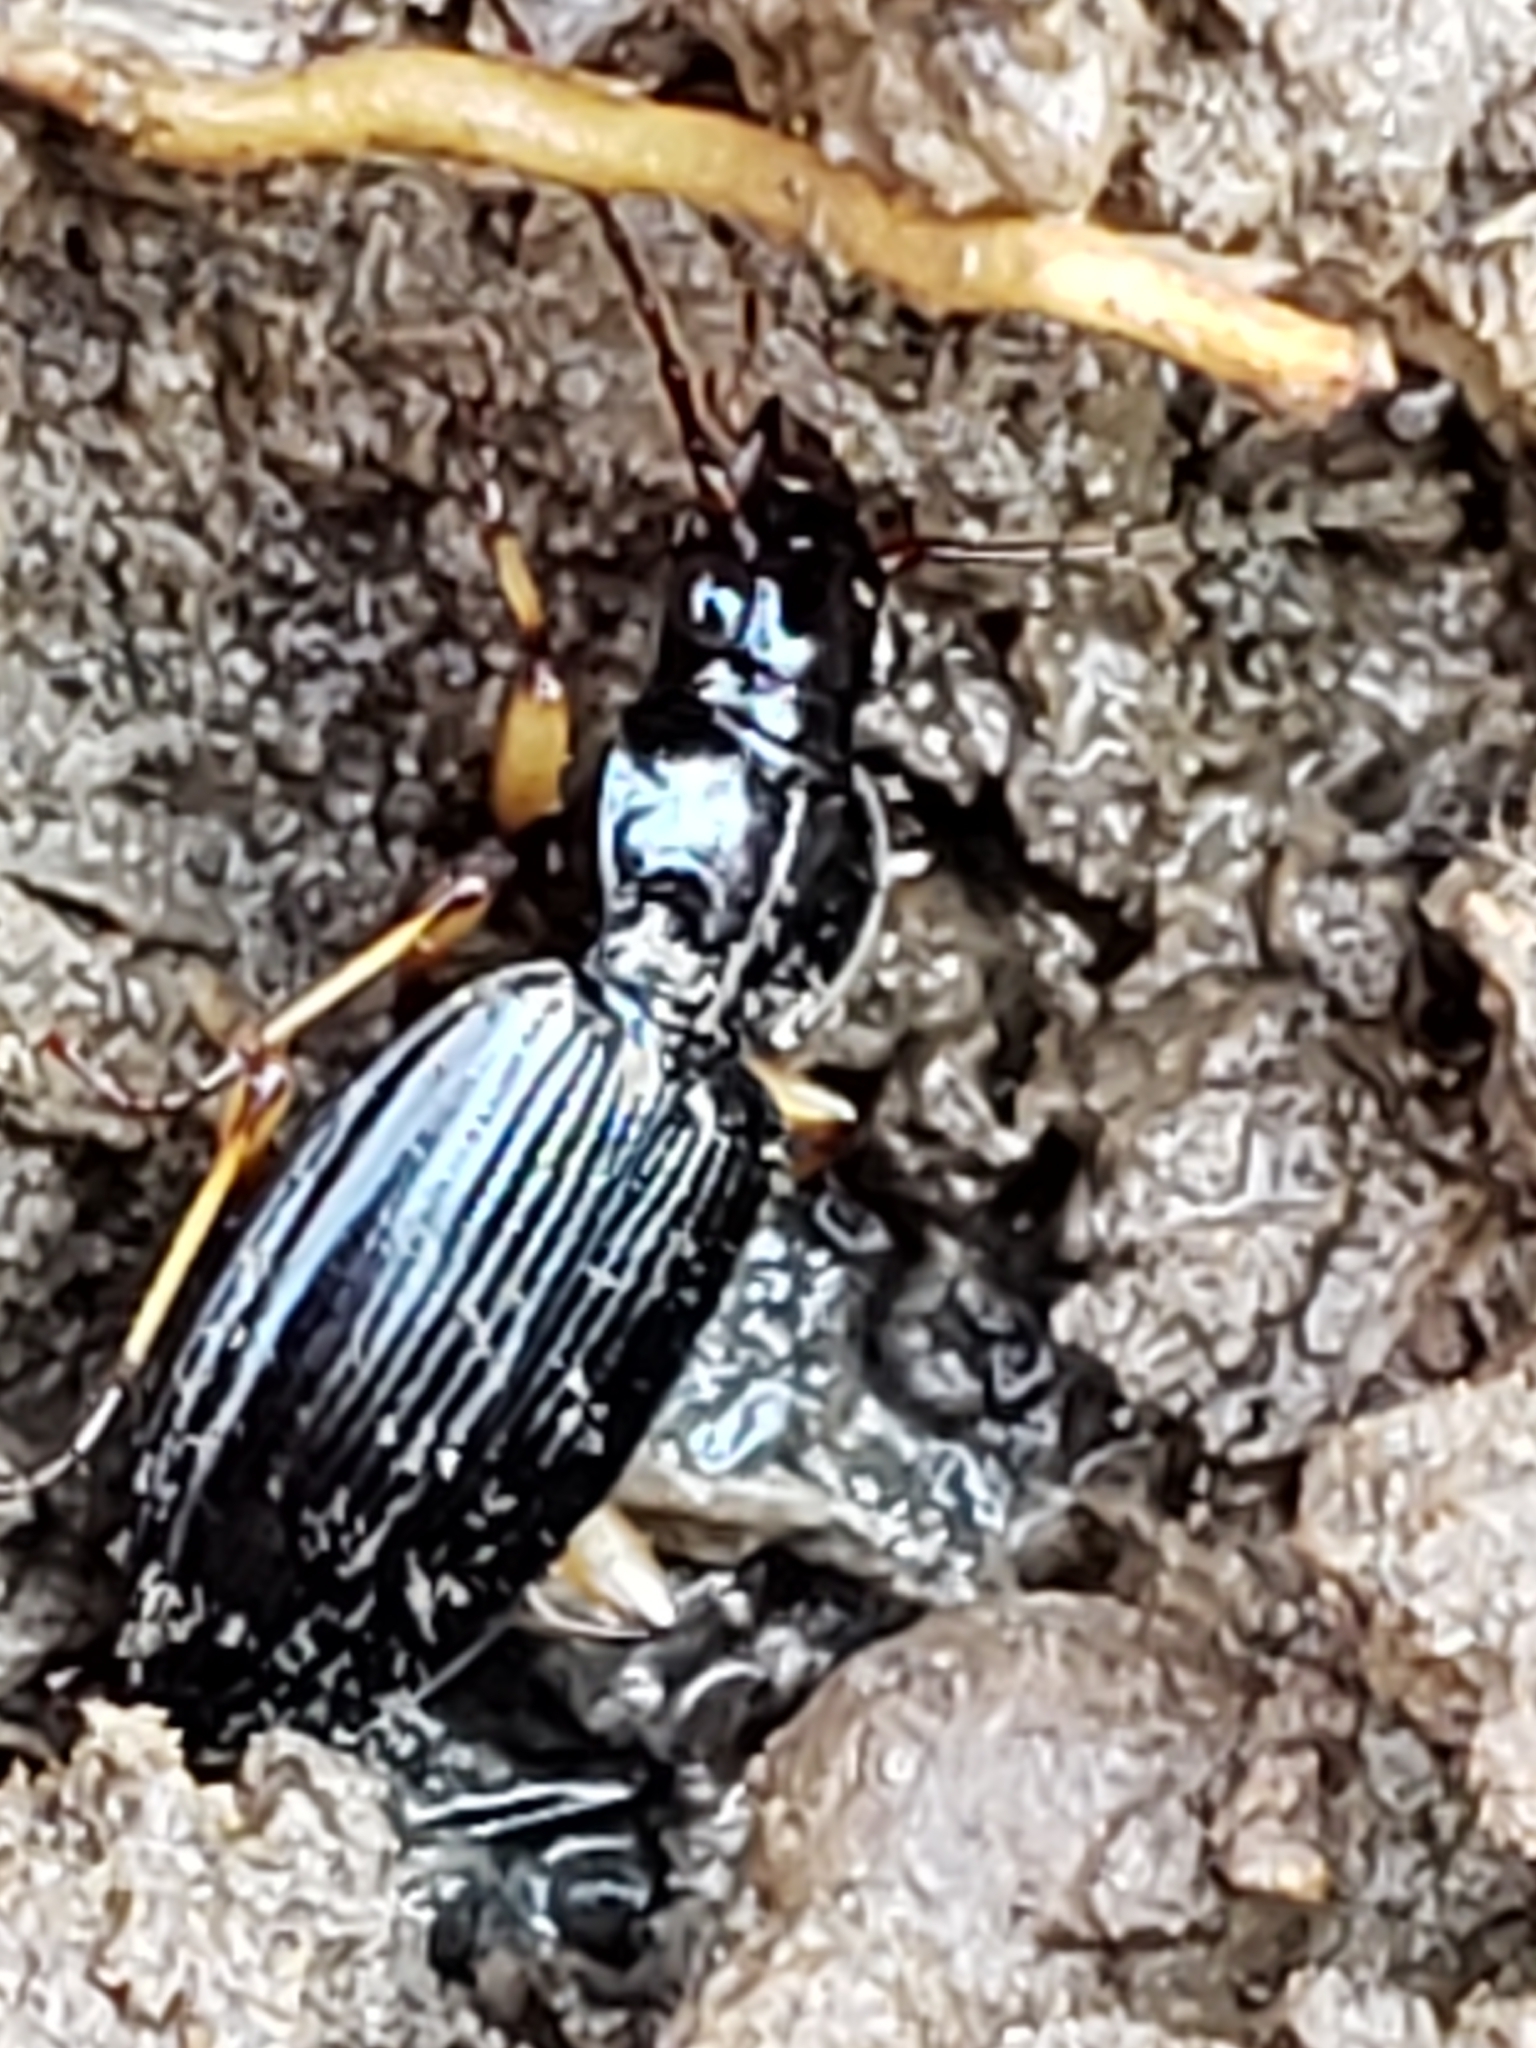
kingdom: Animalia
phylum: Arthropoda
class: Insecta
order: Coleoptera
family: Carabidae
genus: Patrobus
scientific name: Patrobus longicornis
